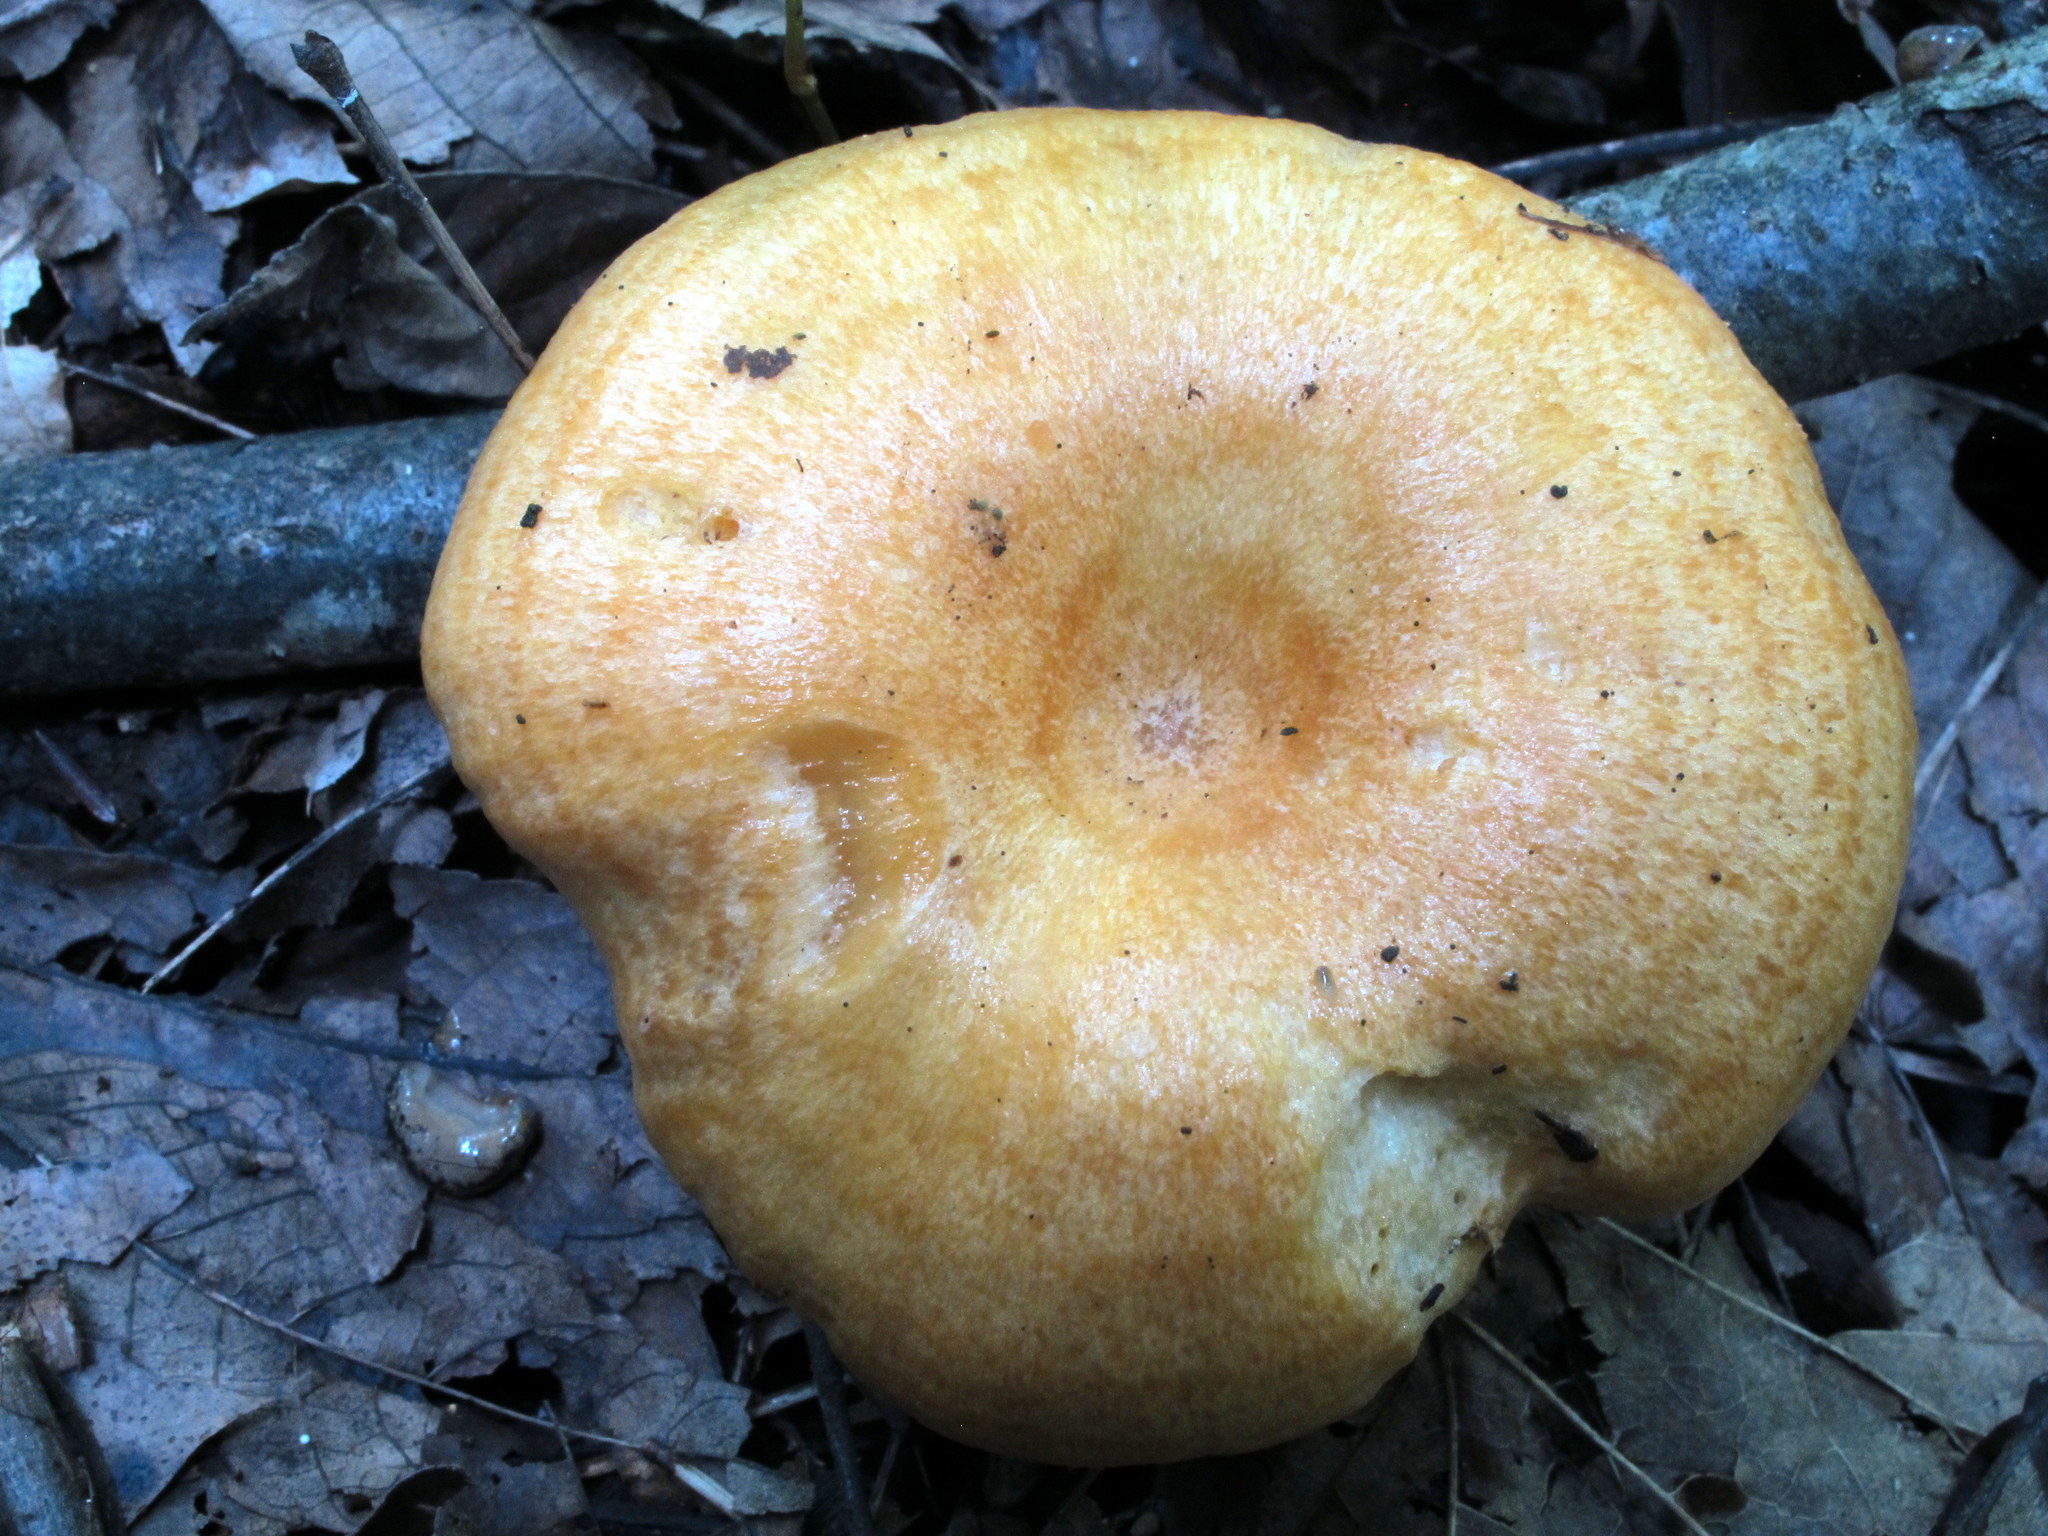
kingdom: Fungi
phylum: Basidiomycota
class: Agaricomycetes
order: Russulales
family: Russulaceae
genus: Lactarius
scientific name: Lactarius croceus
